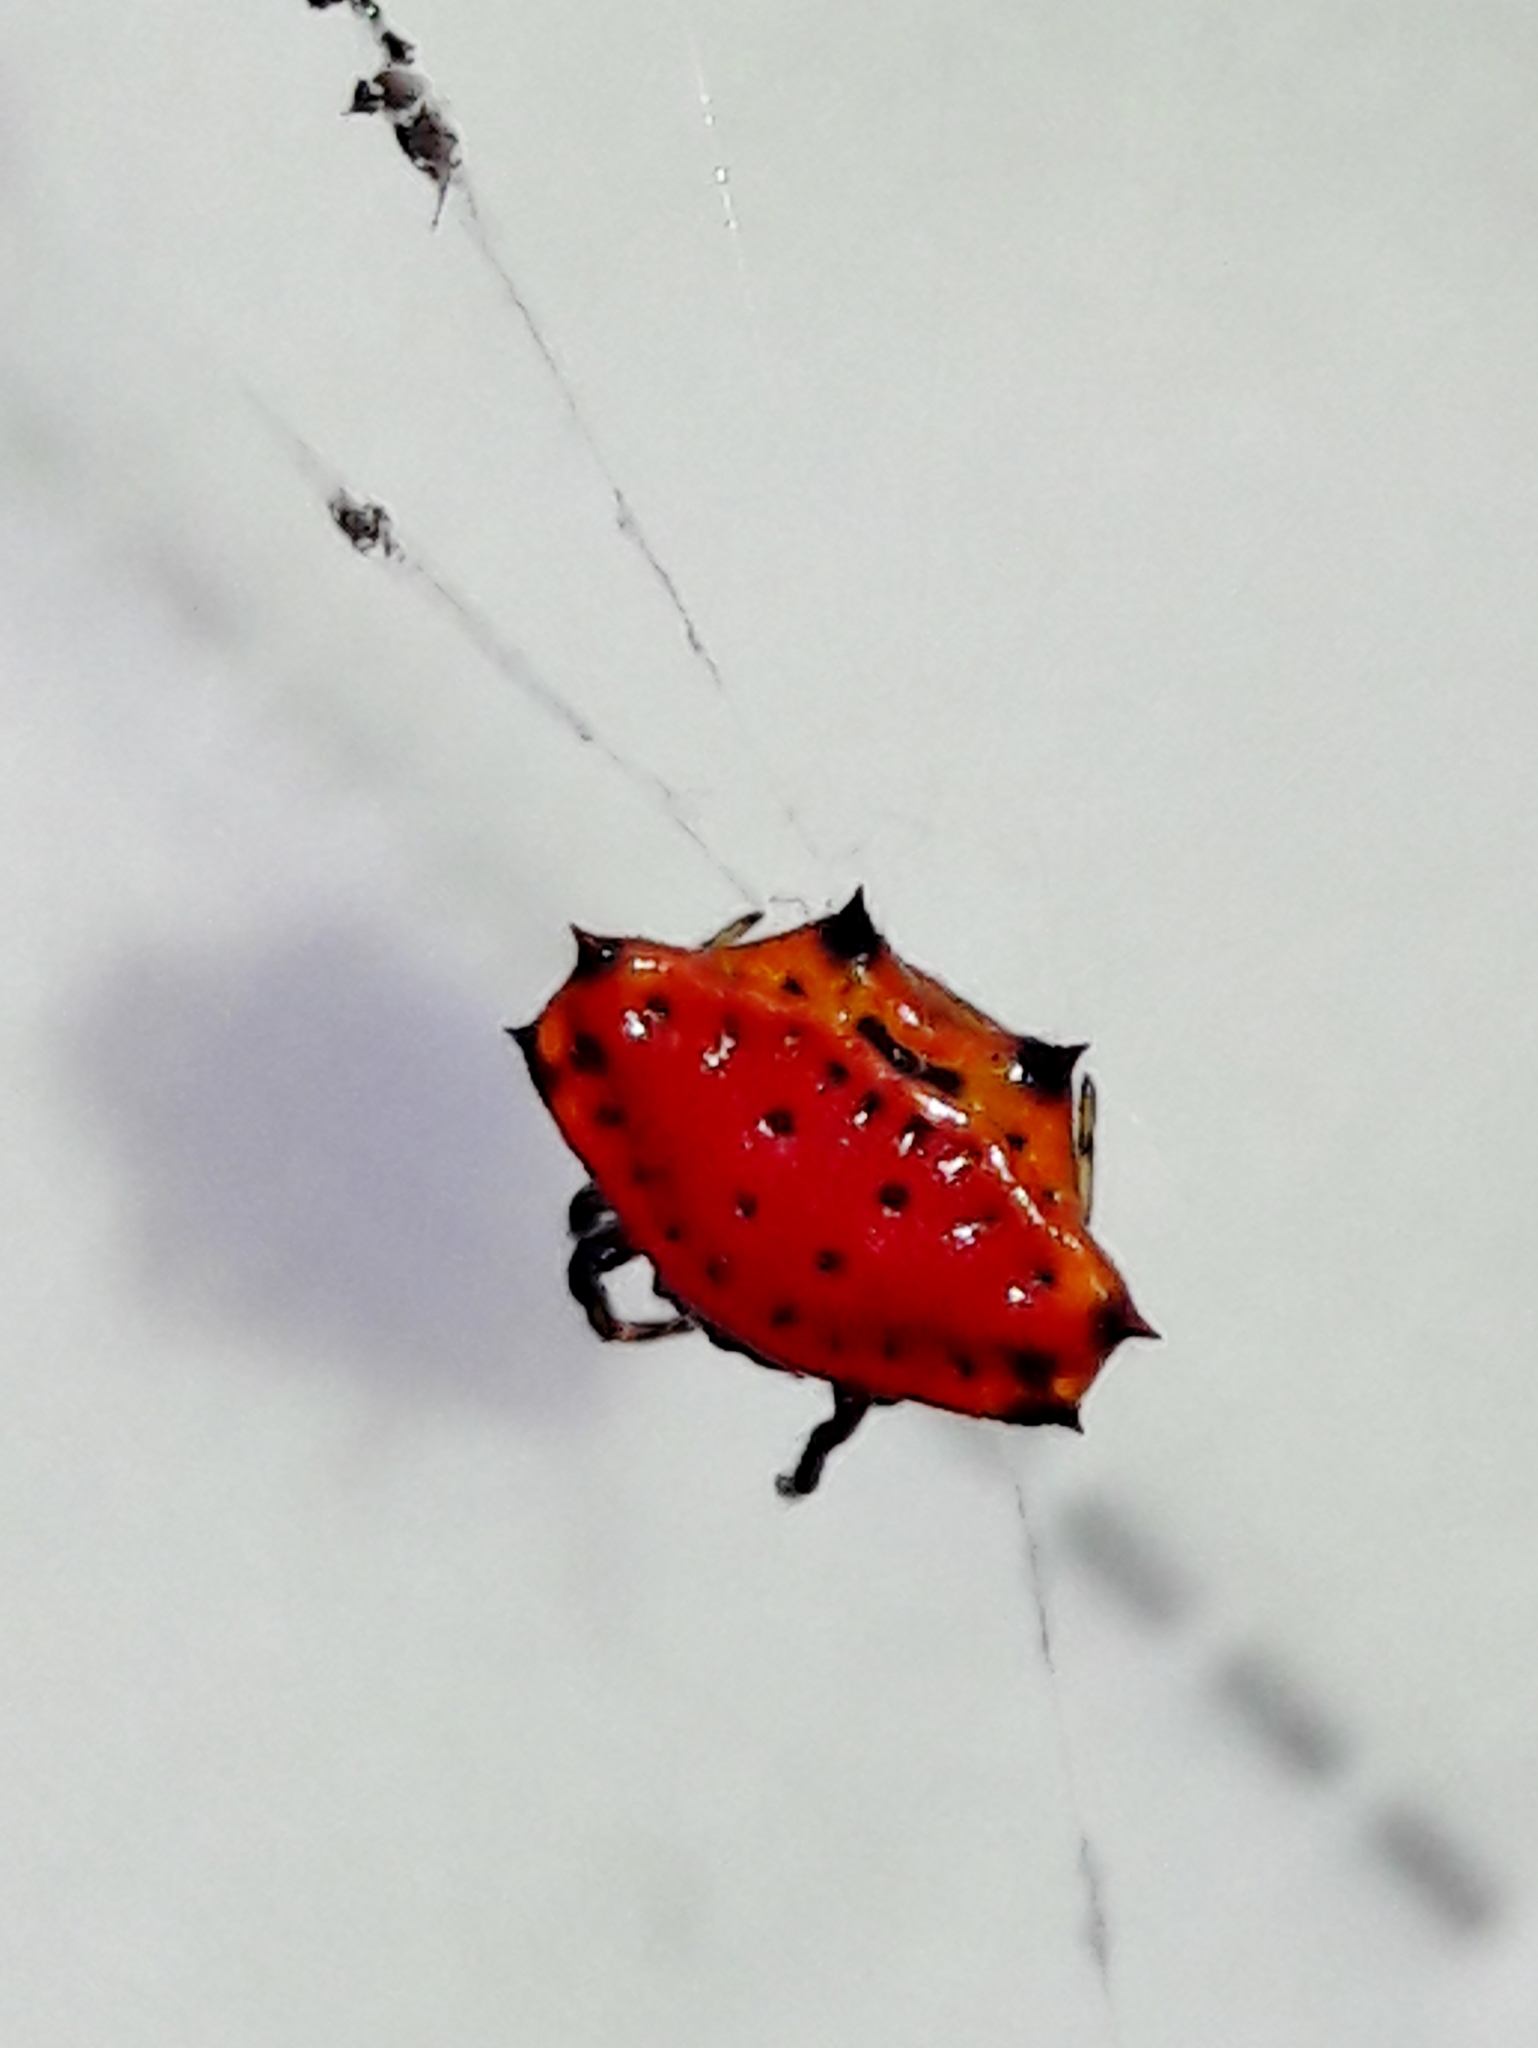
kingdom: Animalia
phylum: Arthropoda
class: Arachnida
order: Araneae
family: Araneidae
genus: Gasteracantha
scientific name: Gasteracantha cancriformis
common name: Orb weavers
